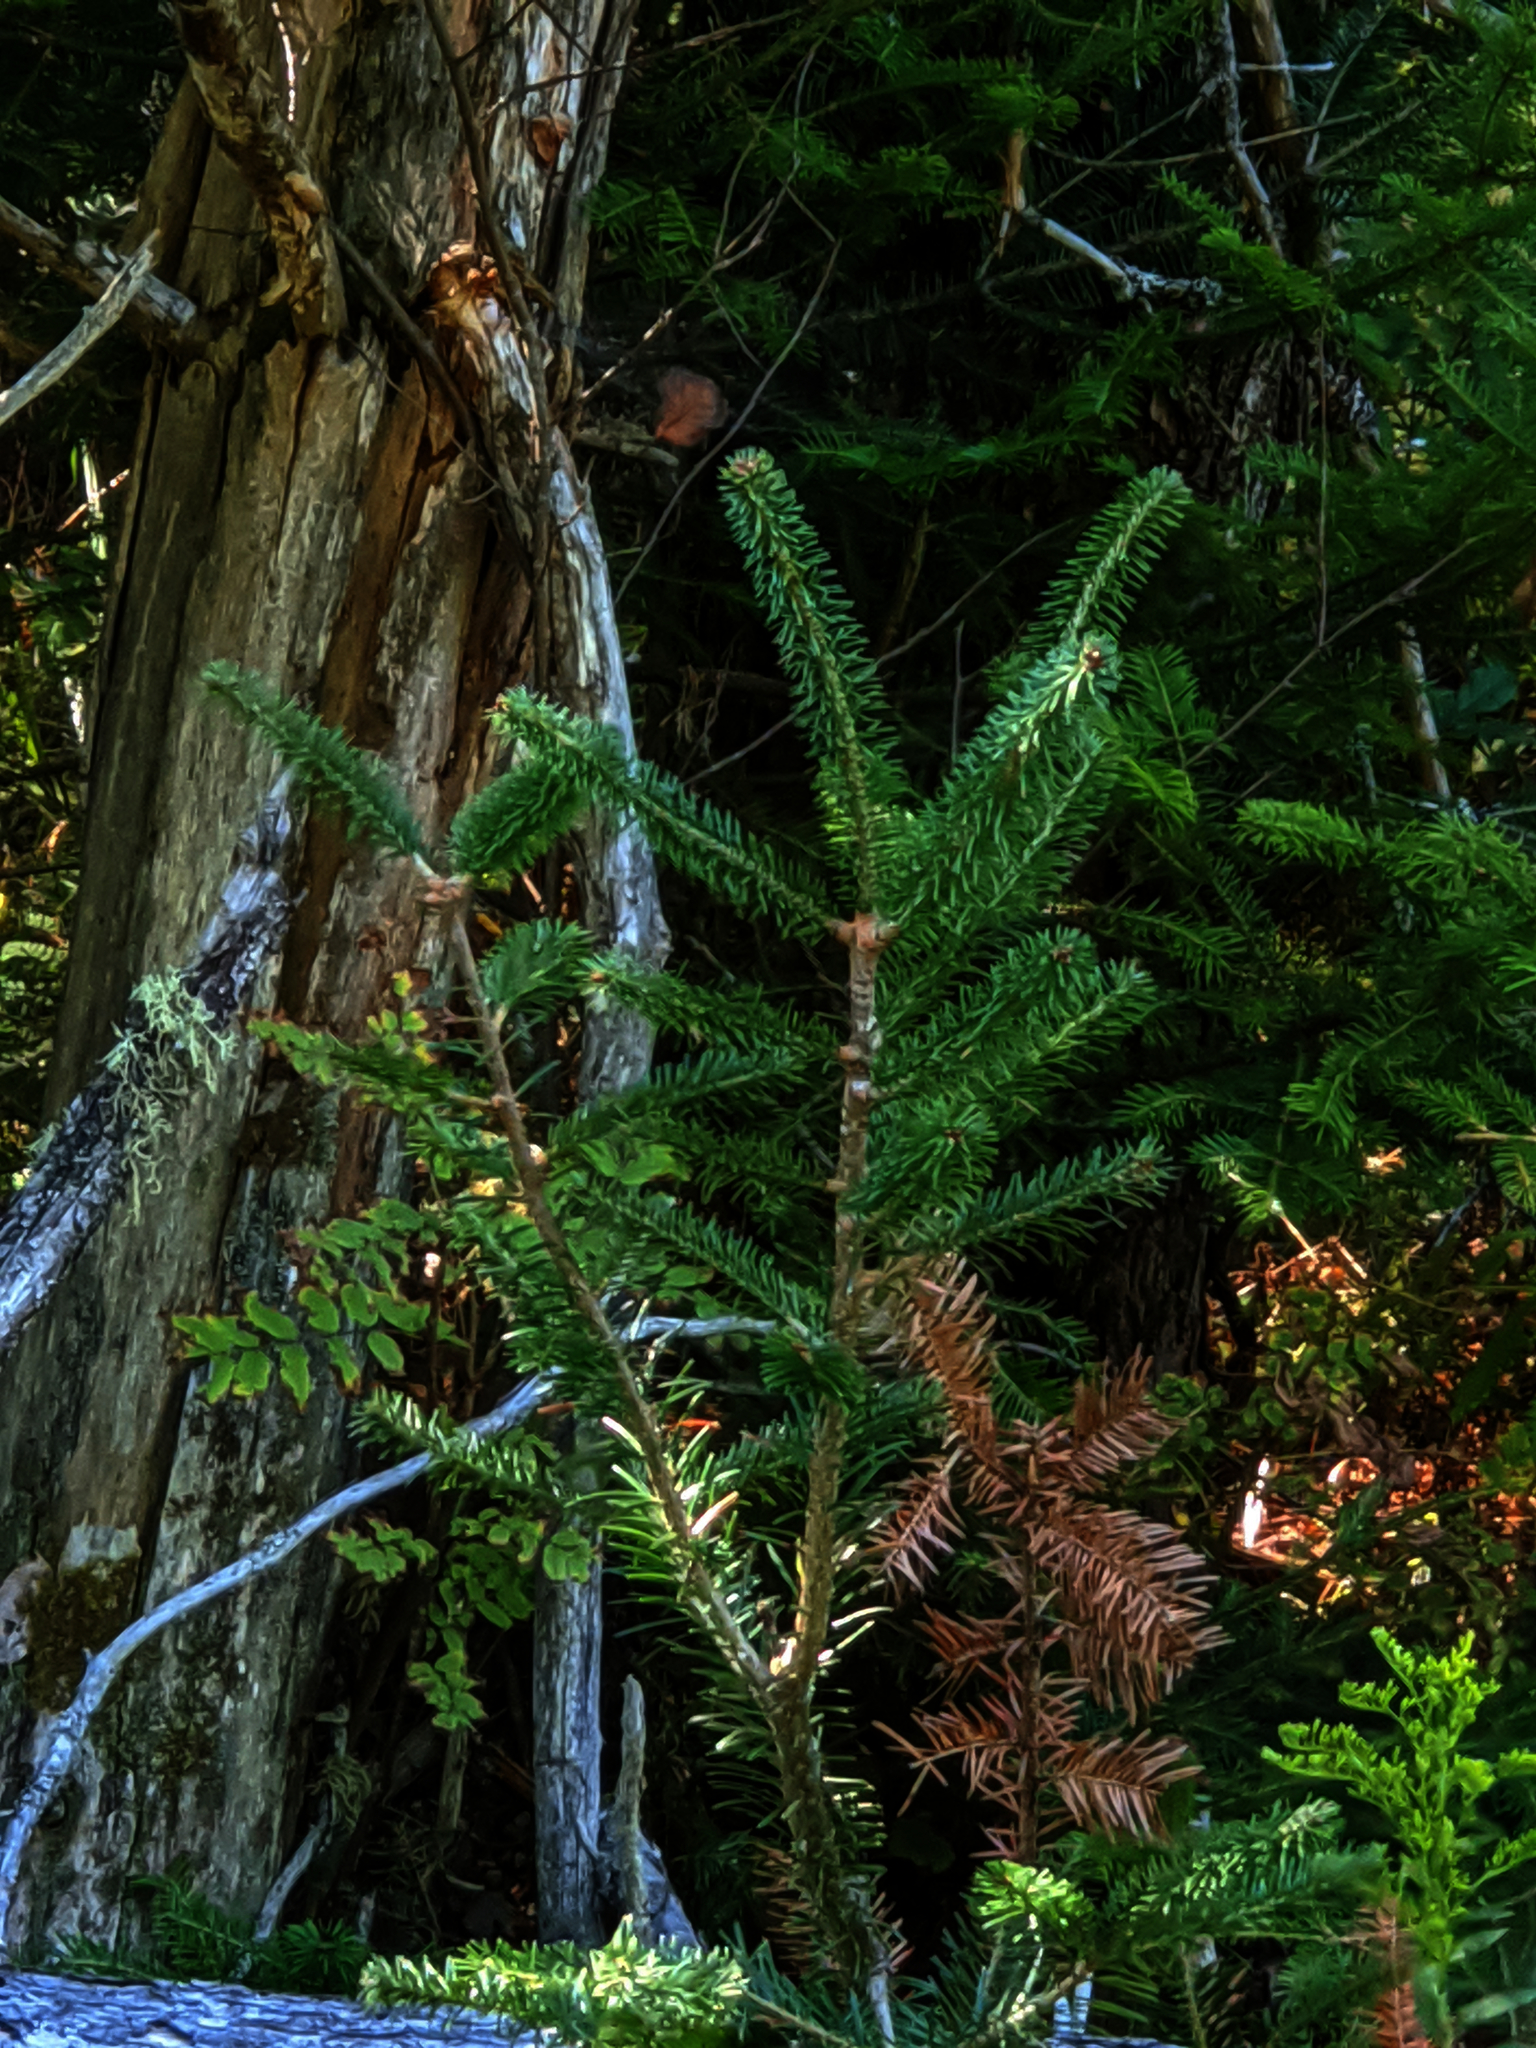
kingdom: Plantae
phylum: Tracheophyta
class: Pinopsida
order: Pinales
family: Pinaceae
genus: Abies
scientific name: Abies balsamea
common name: Balsam fir
